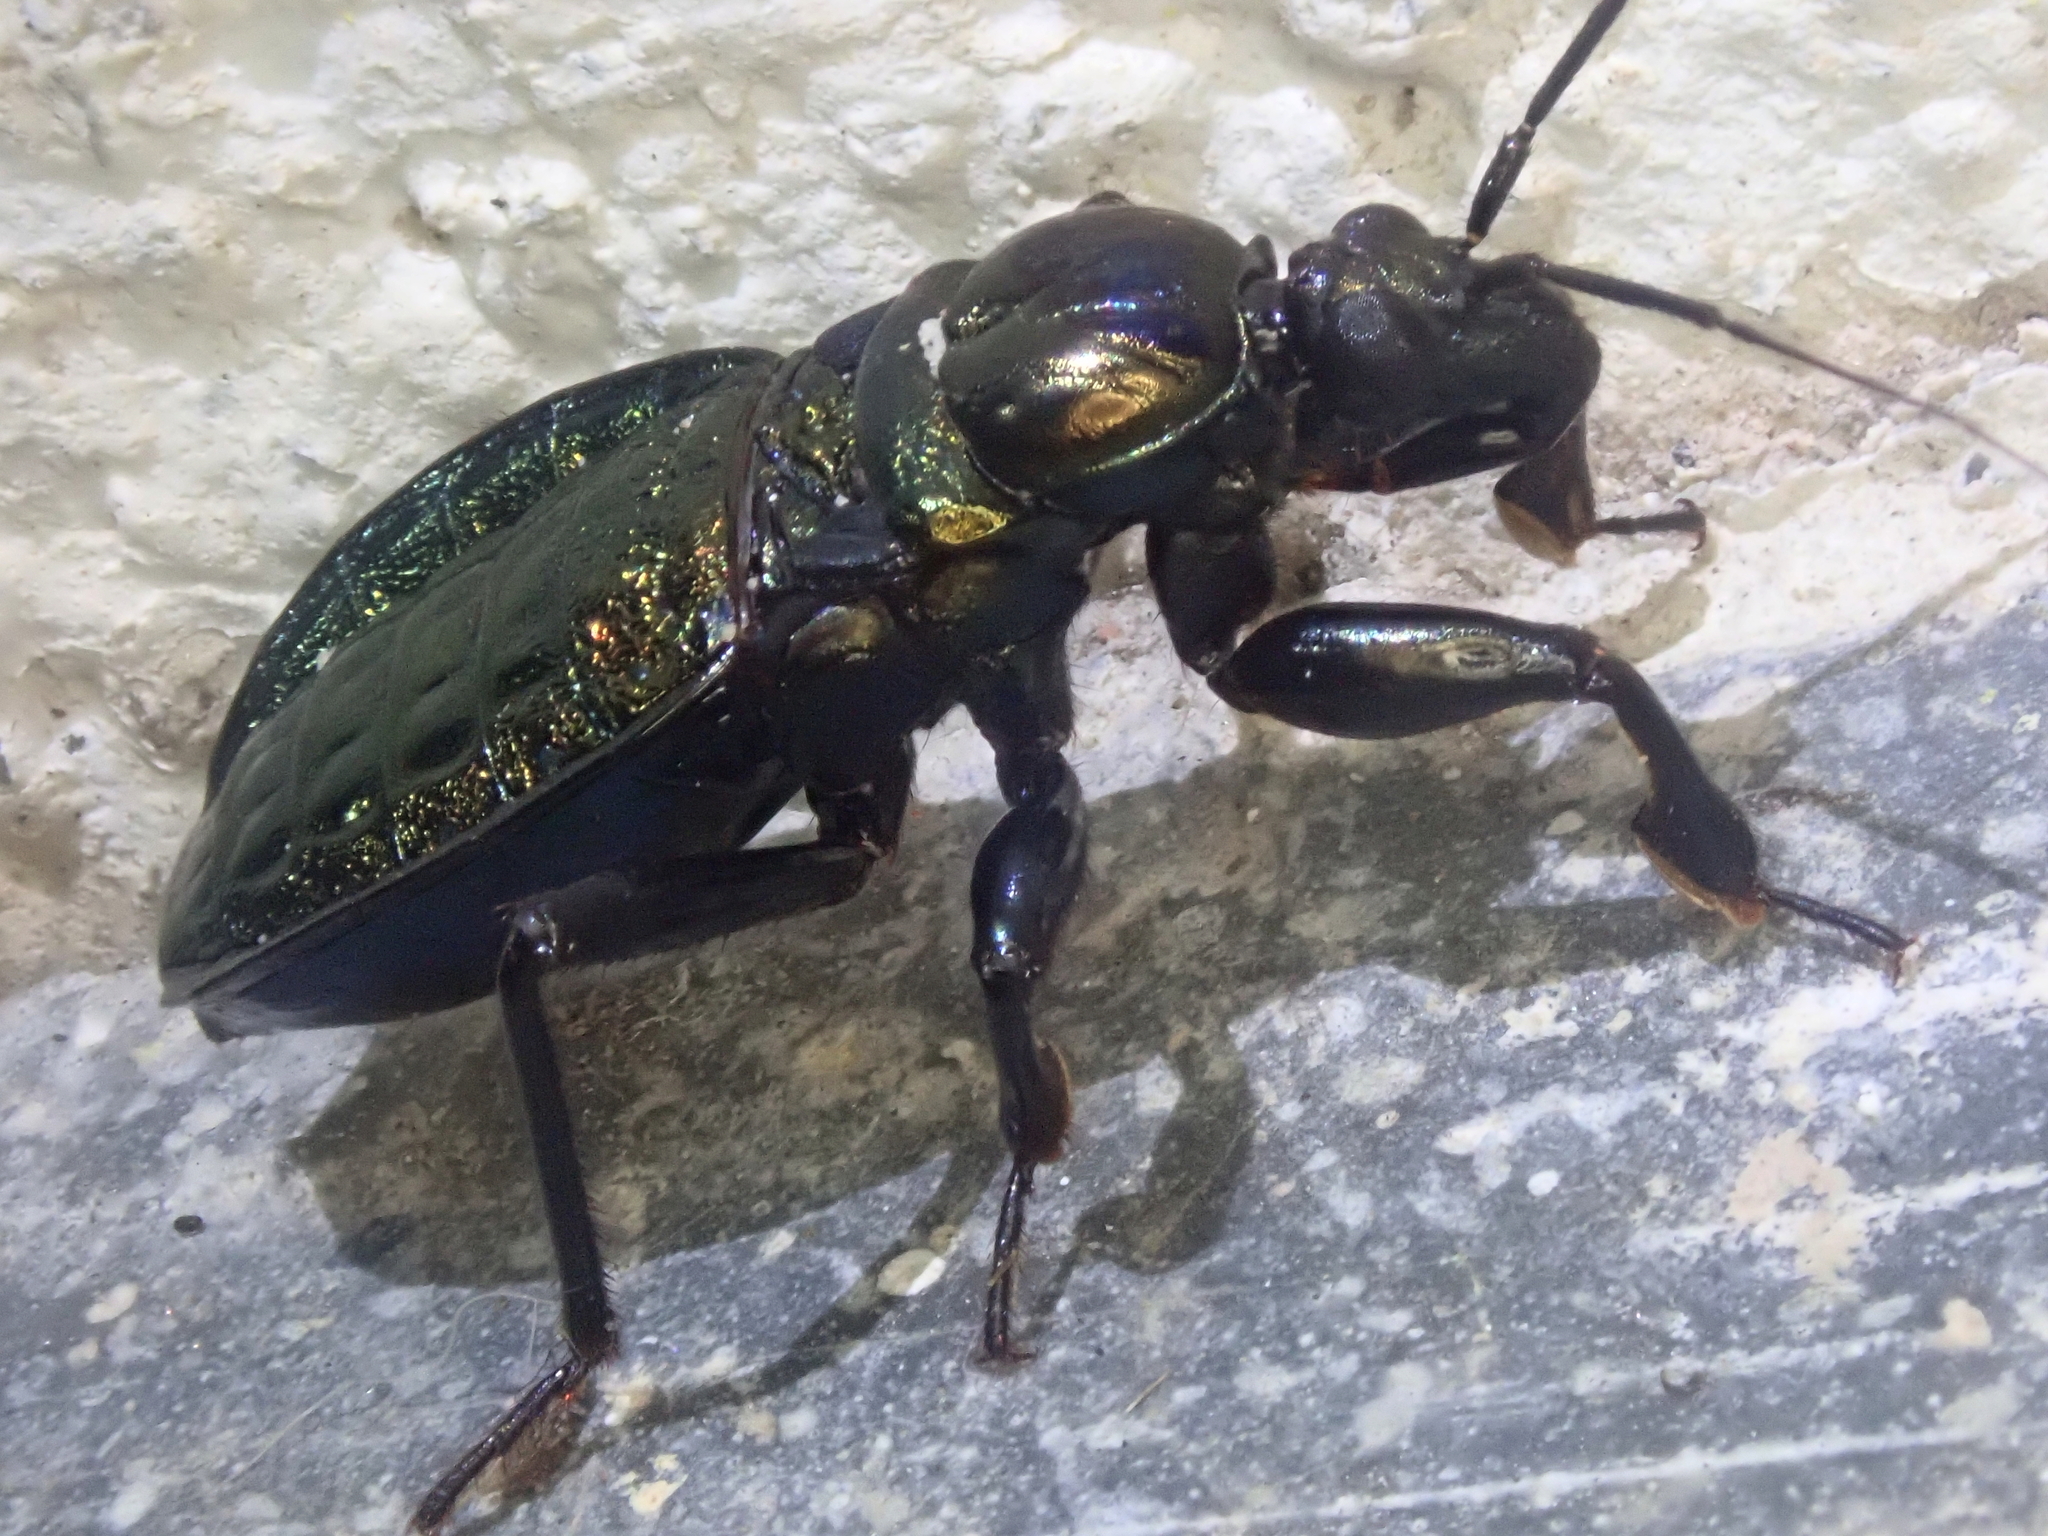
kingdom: Animalia
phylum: Arthropoda
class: Insecta
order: Hemiptera
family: Reduviidae
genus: Melanolestes
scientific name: Melanolestes lugens
